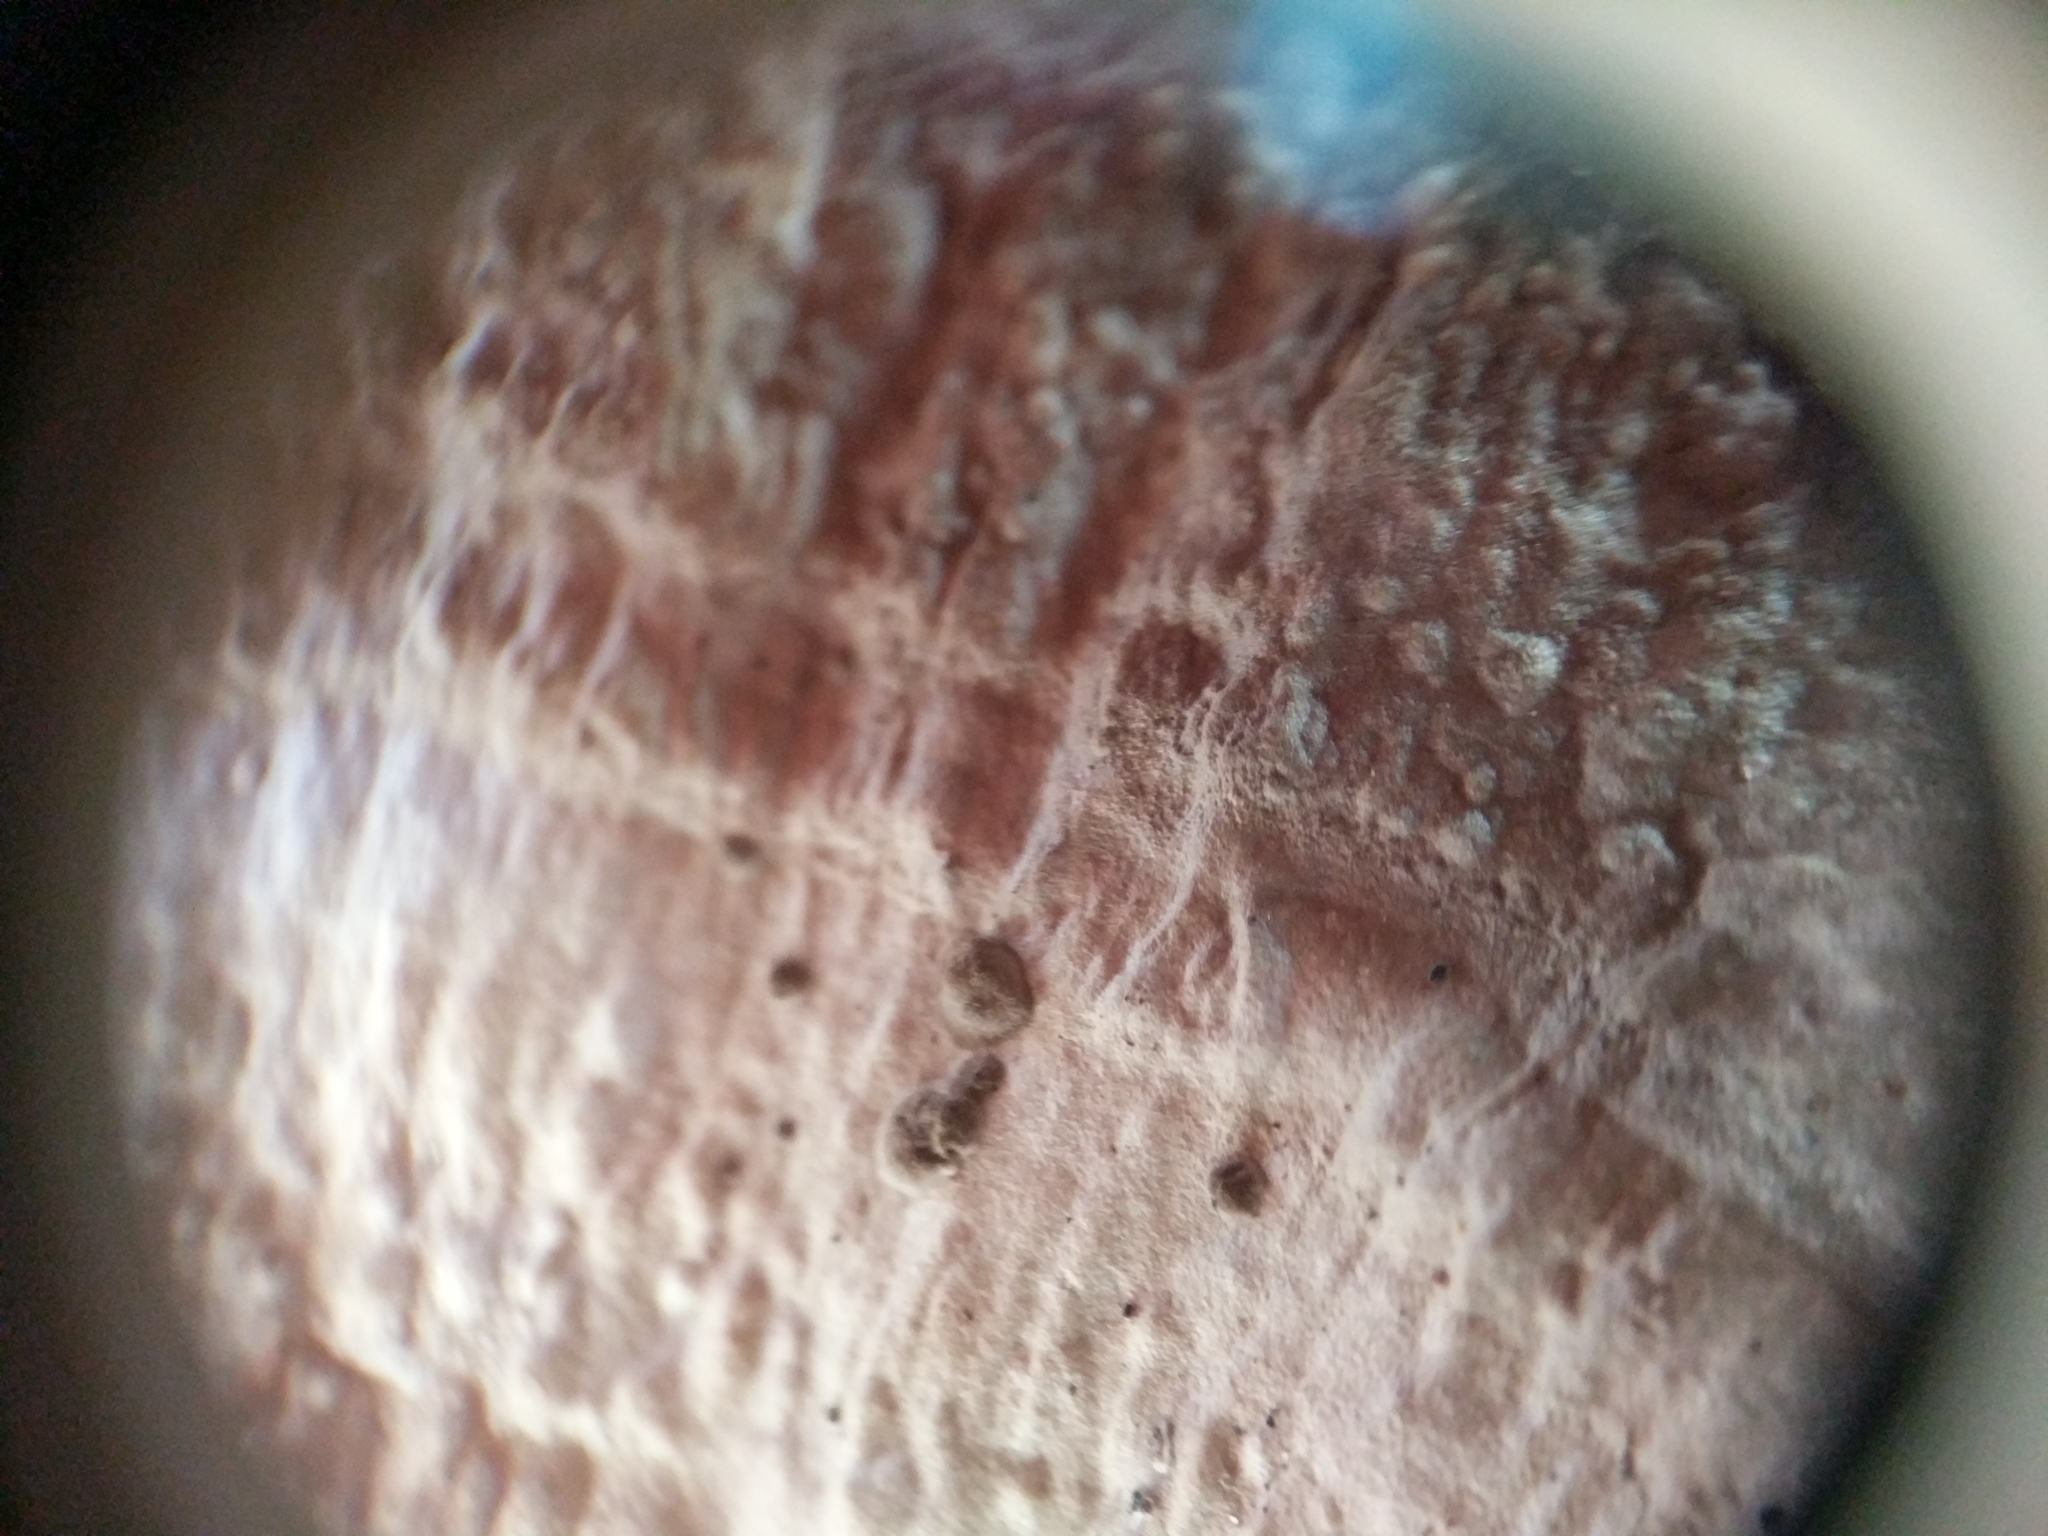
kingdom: Fungi
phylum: Basidiomycota
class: Agaricomycetes
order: Polyporales
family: Polyporaceae
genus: Trametes
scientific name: Trametes lactinea
